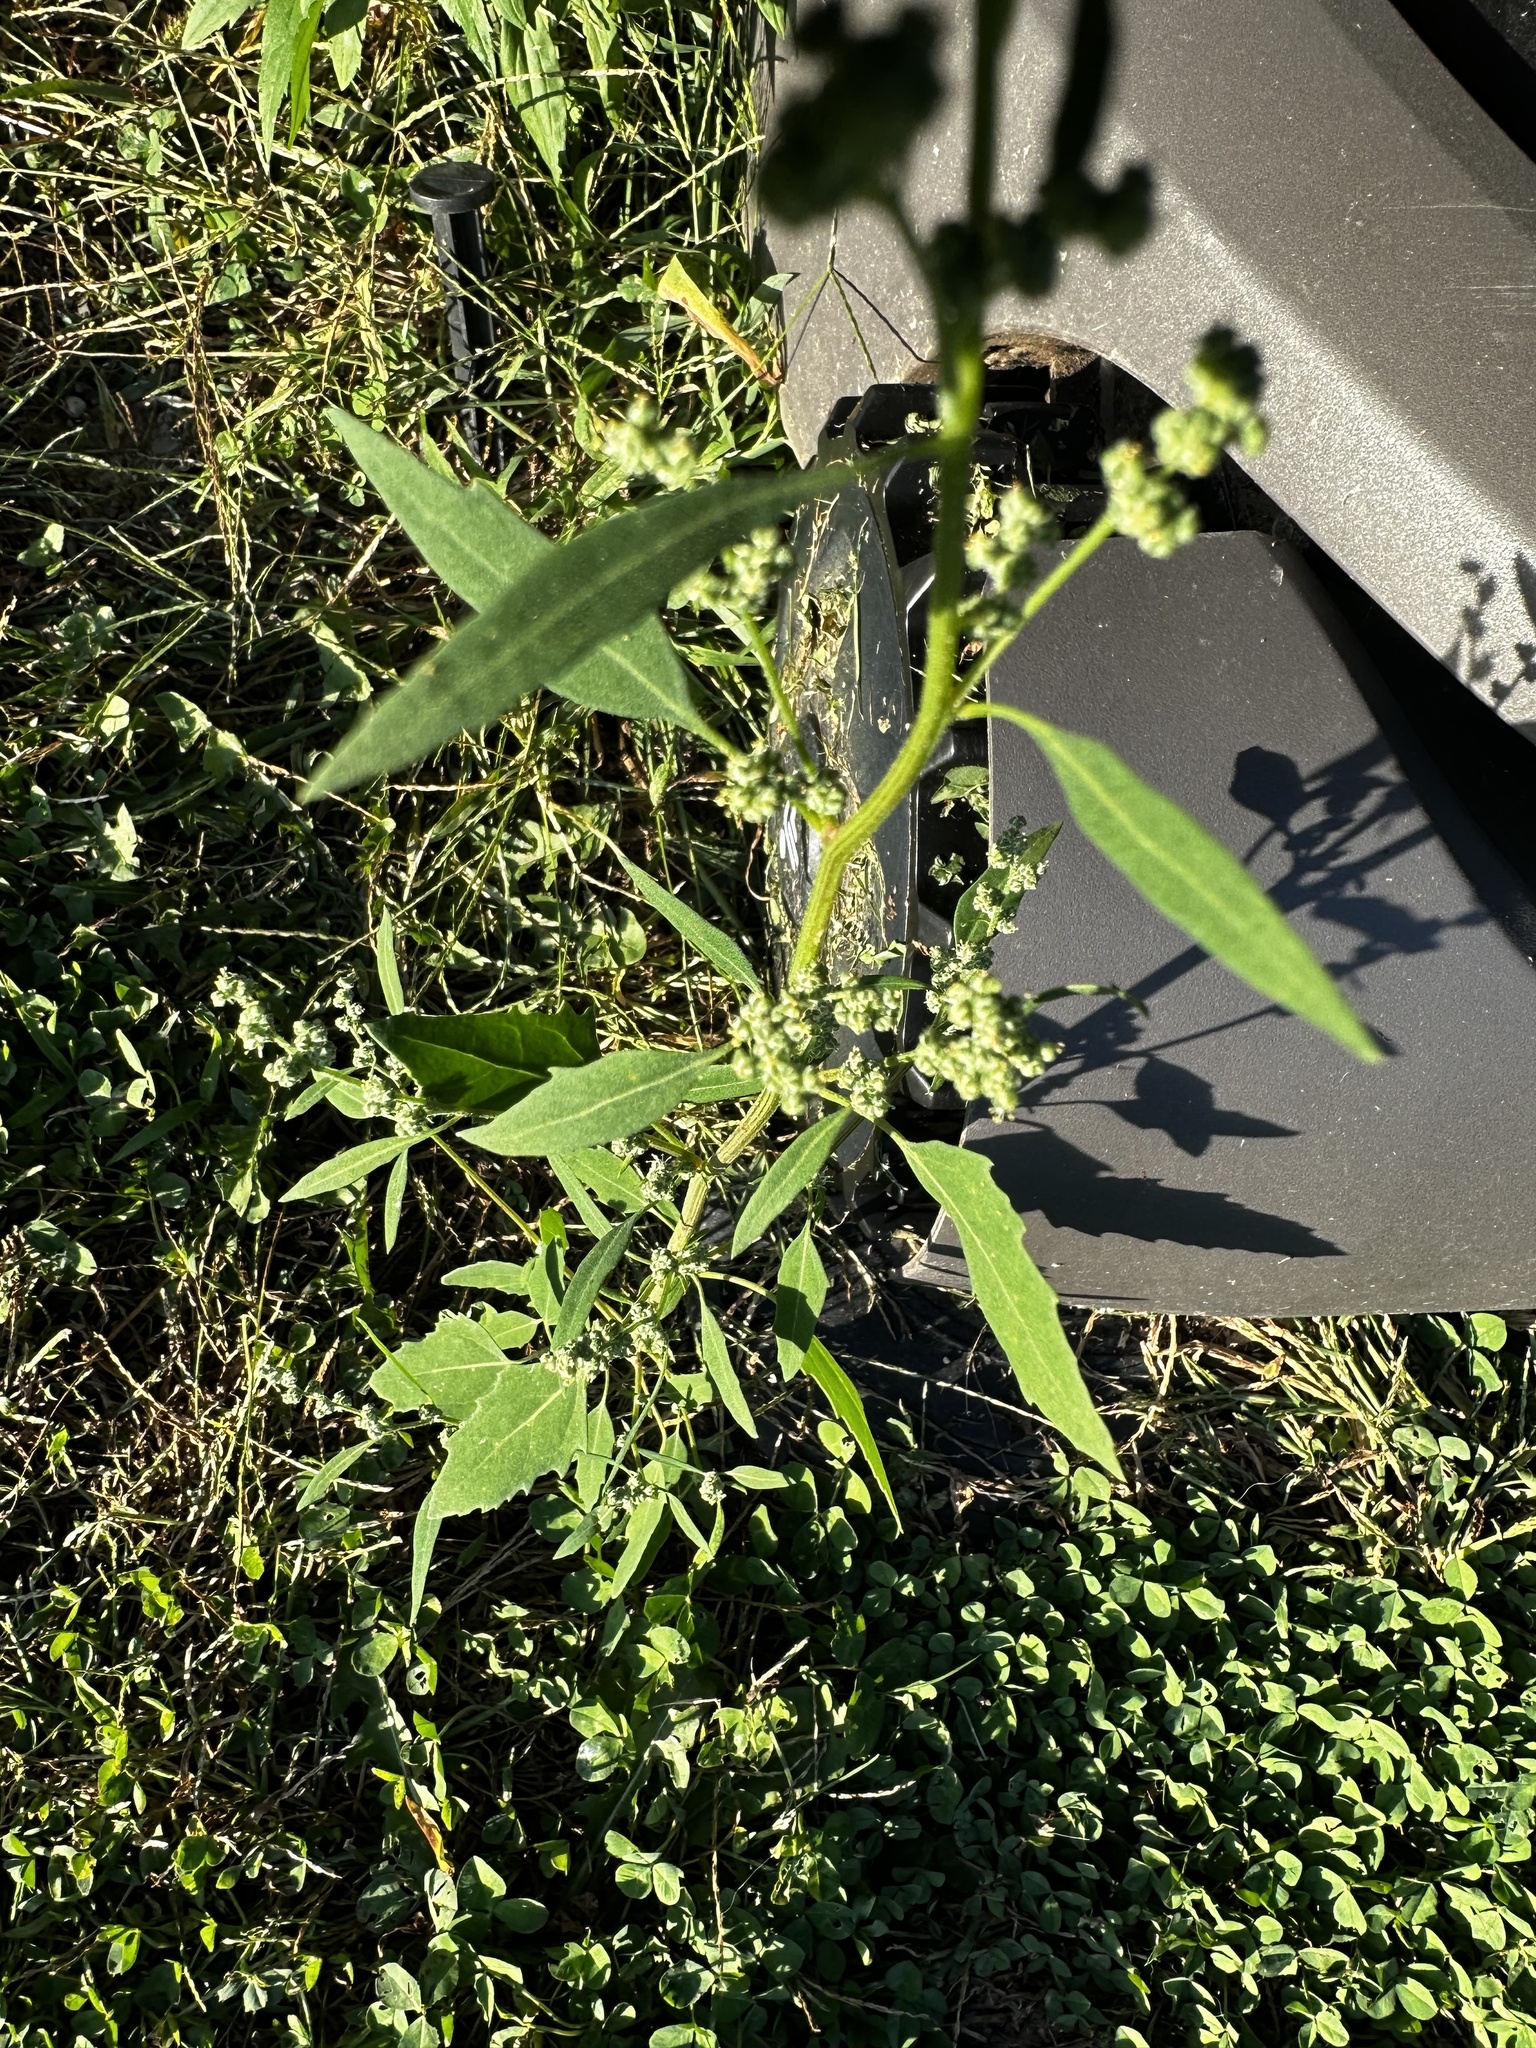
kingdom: Plantae
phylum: Tracheophyta
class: Magnoliopsida
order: Caryophyllales
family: Amaranthaceae
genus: Chenopodium
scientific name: Chenopodium album
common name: Fat-hen
